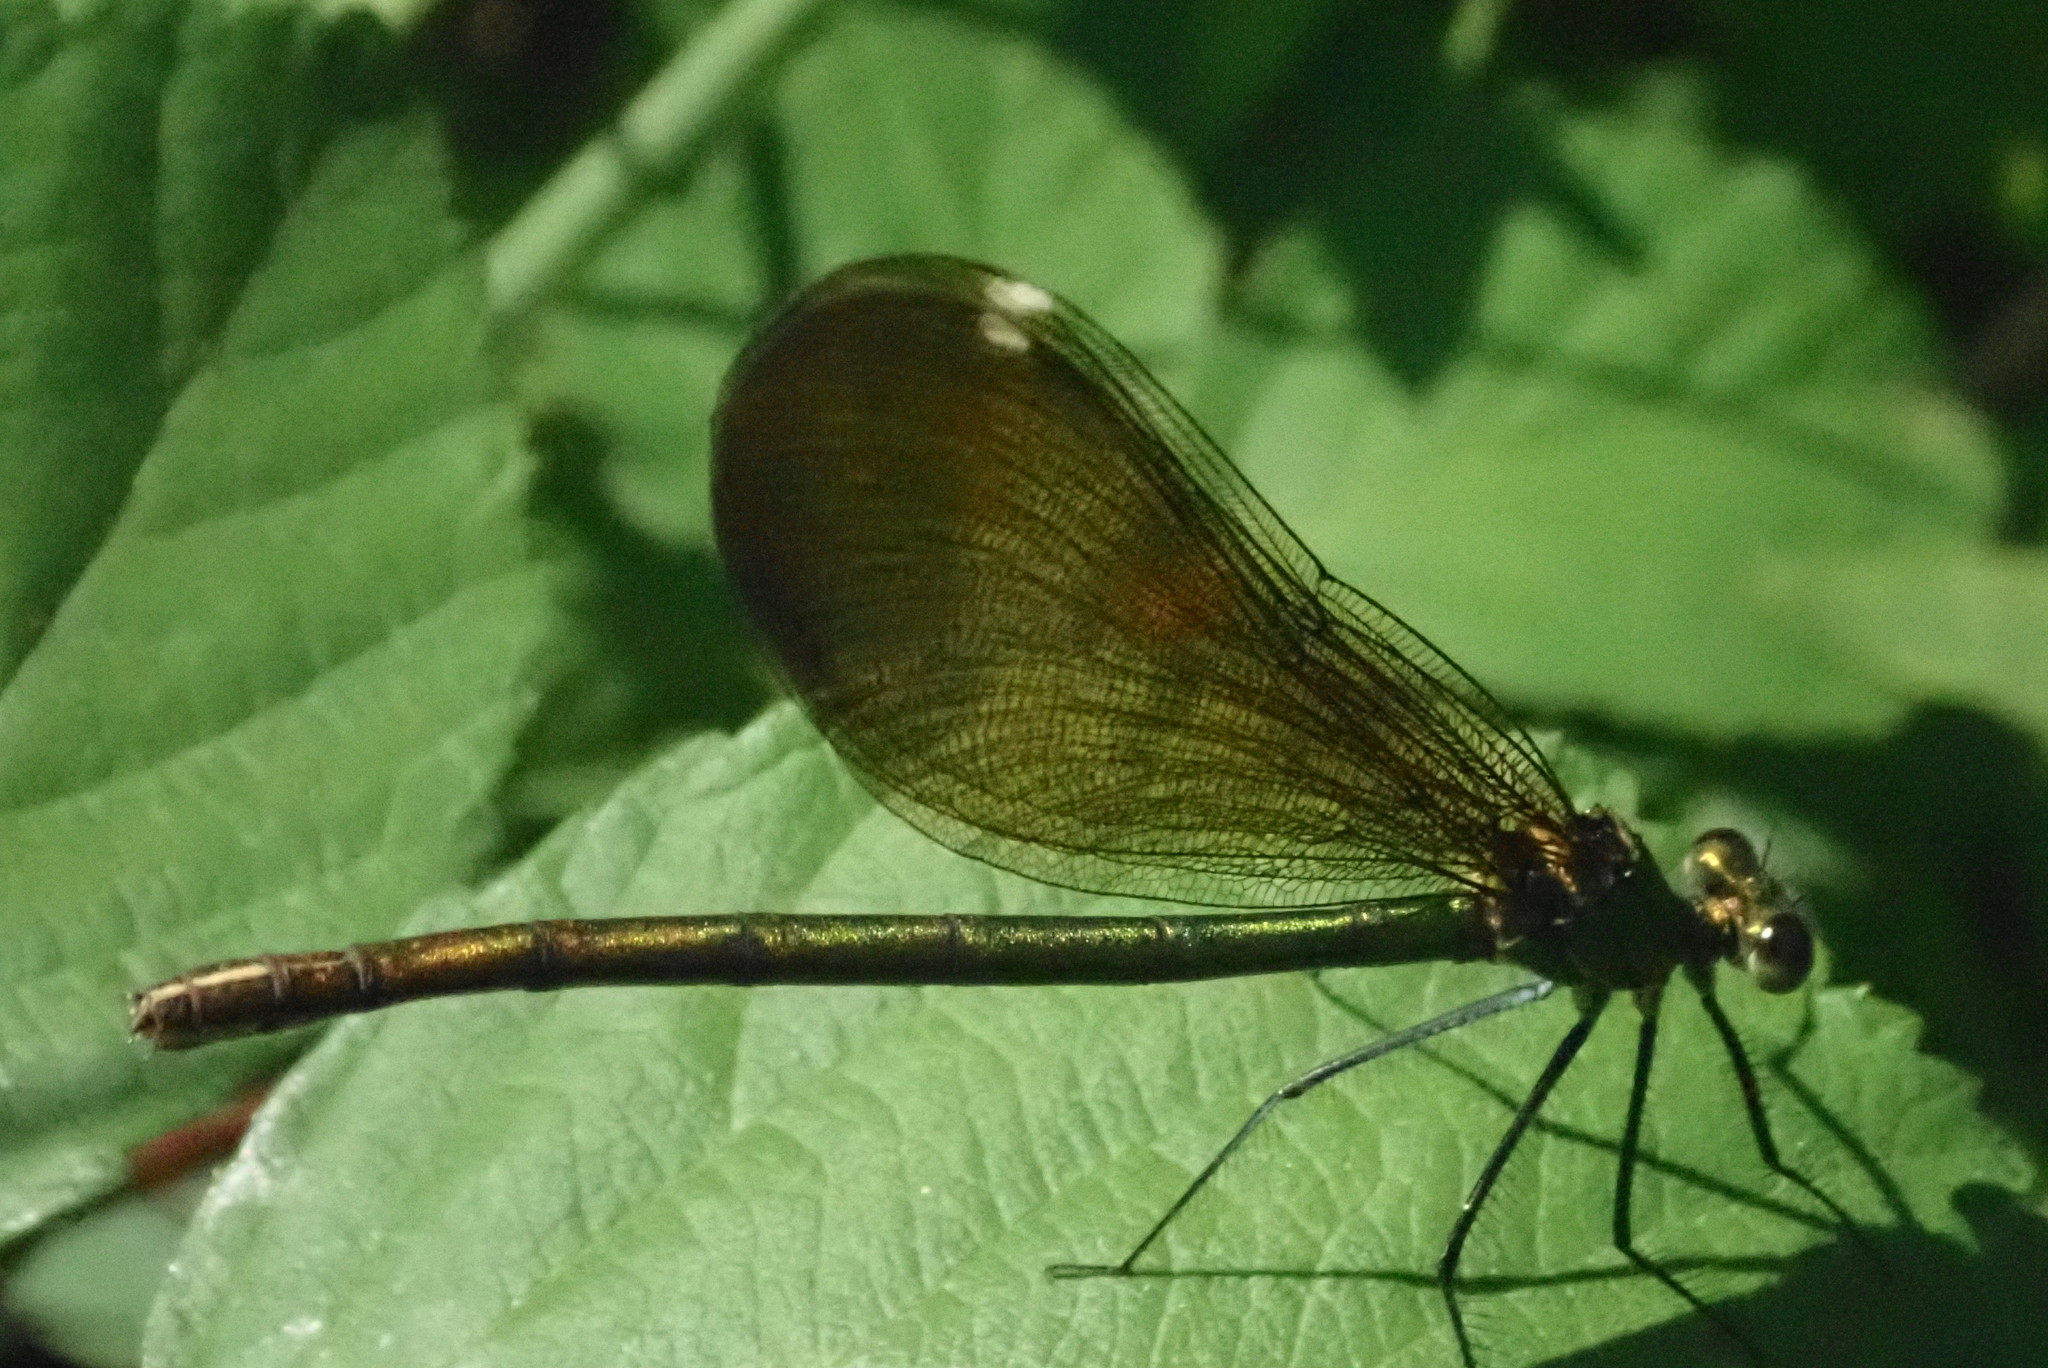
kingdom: Animalia
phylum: Arthropoda
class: Insecta
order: Odonata
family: Calopterygidae
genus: Calopteryx
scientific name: Calopteryx virgo
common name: Beautiful demoiselle
